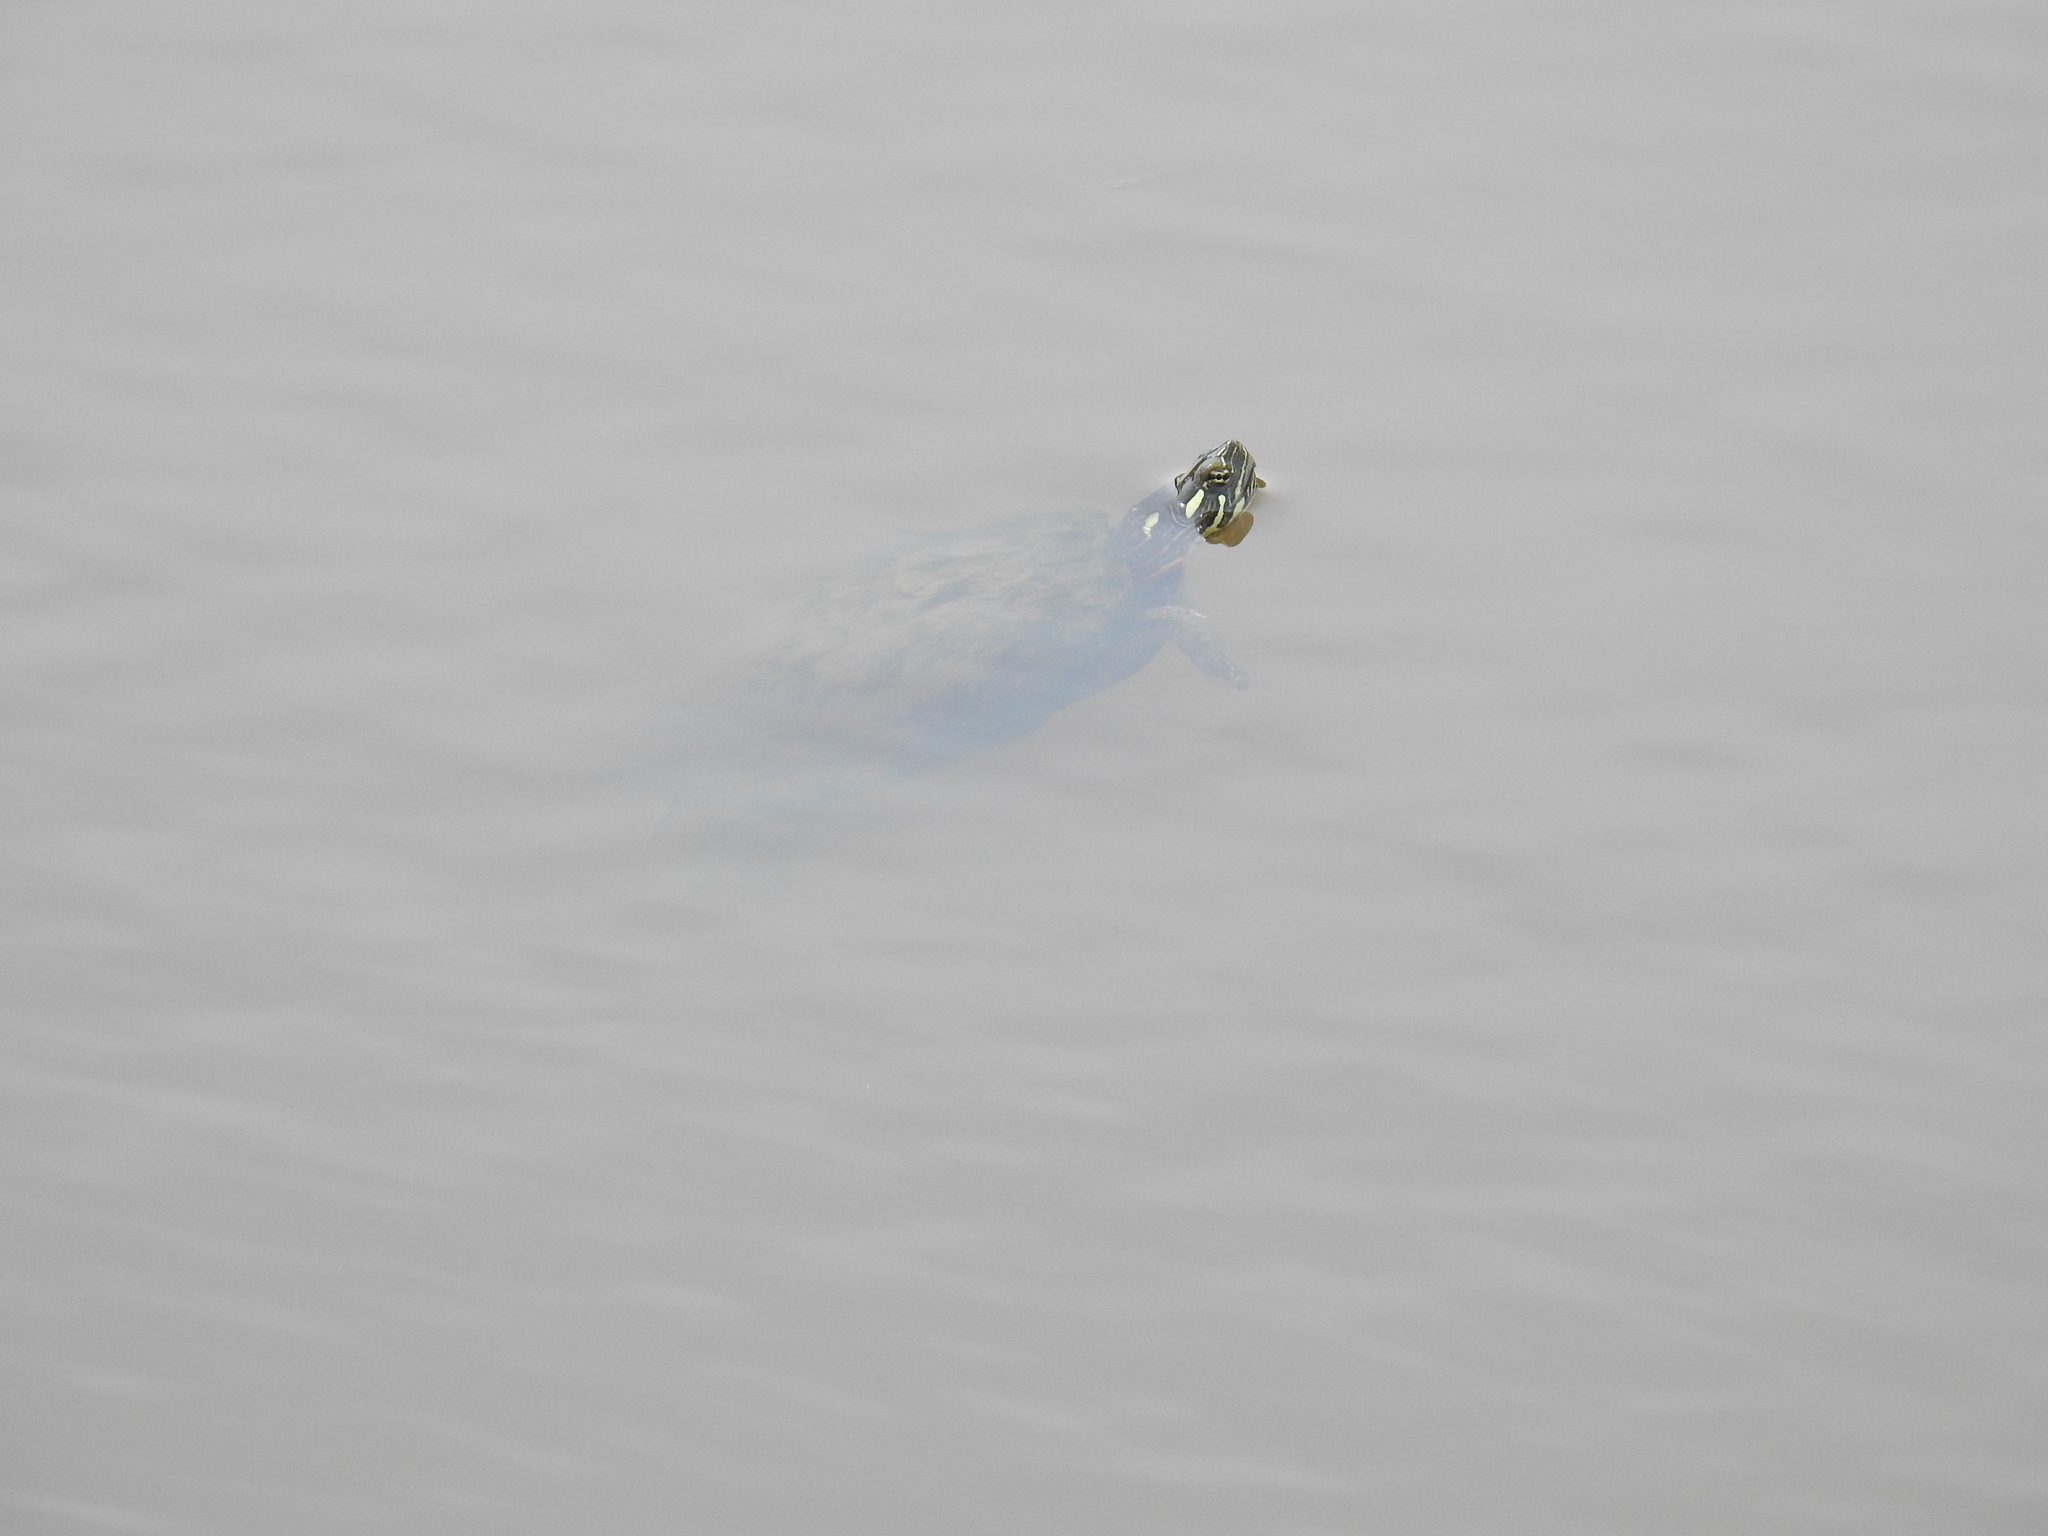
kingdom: Animalia
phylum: Chordata
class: Testudines
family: Emydidae
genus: Chrysemys
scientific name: Chrysemys picta
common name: Painted turtle
